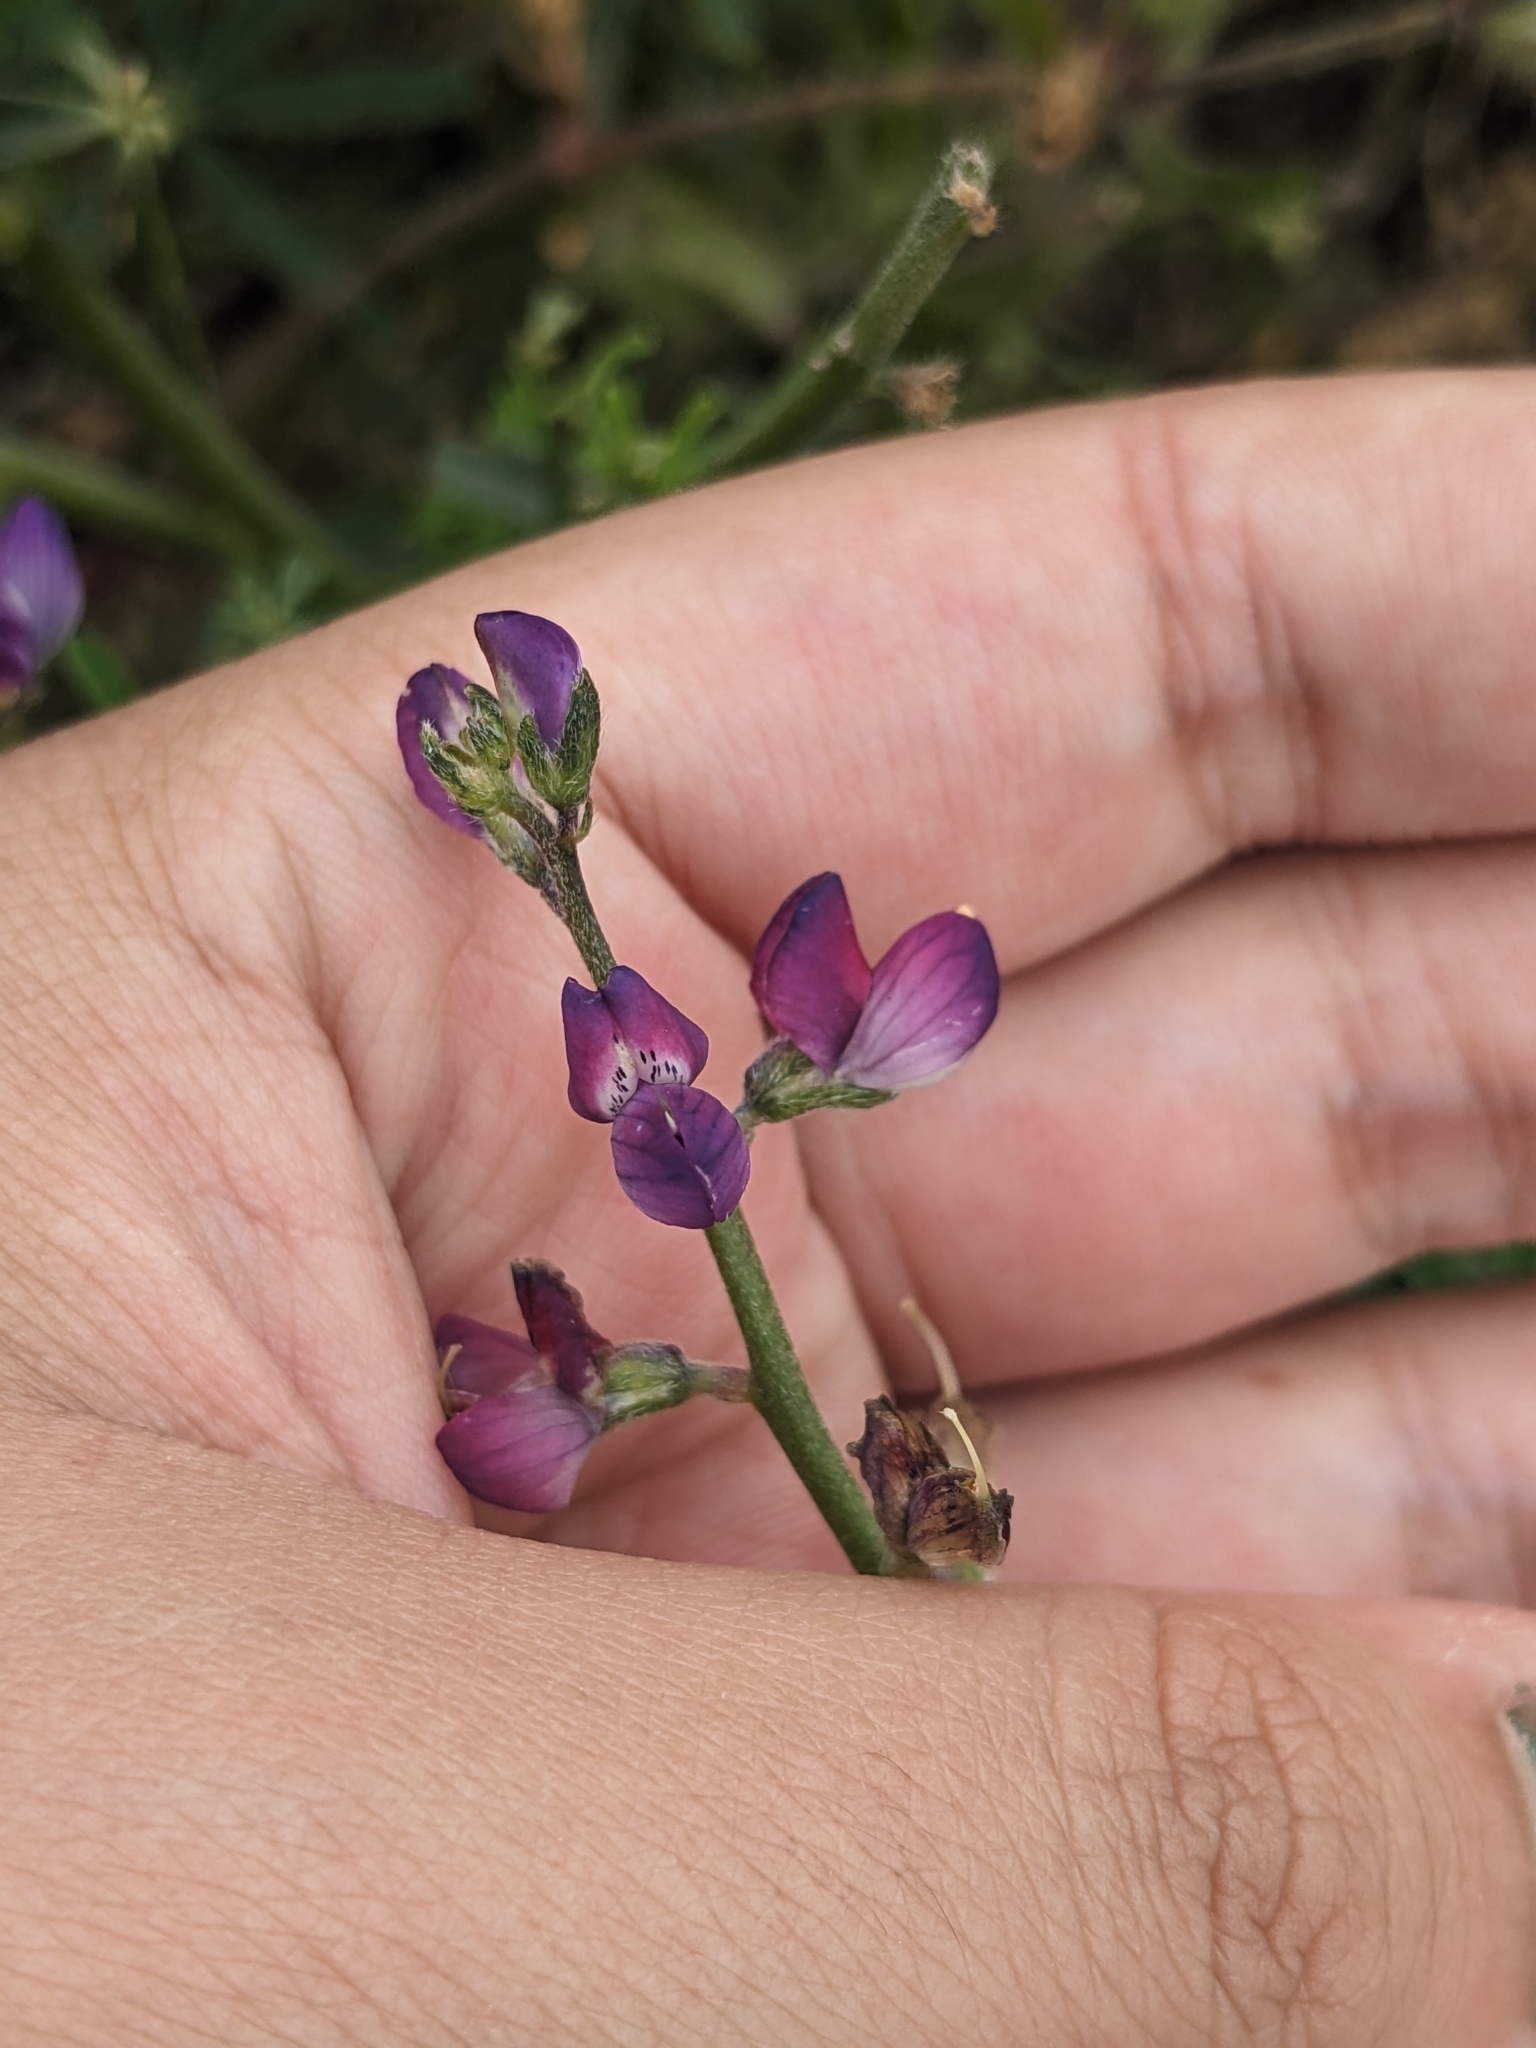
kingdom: Plantae
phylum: Tracheophyta
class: Magnoliopsida
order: Fabales
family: Fabaceae
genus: Lupinus
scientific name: Lupinus truncatus
